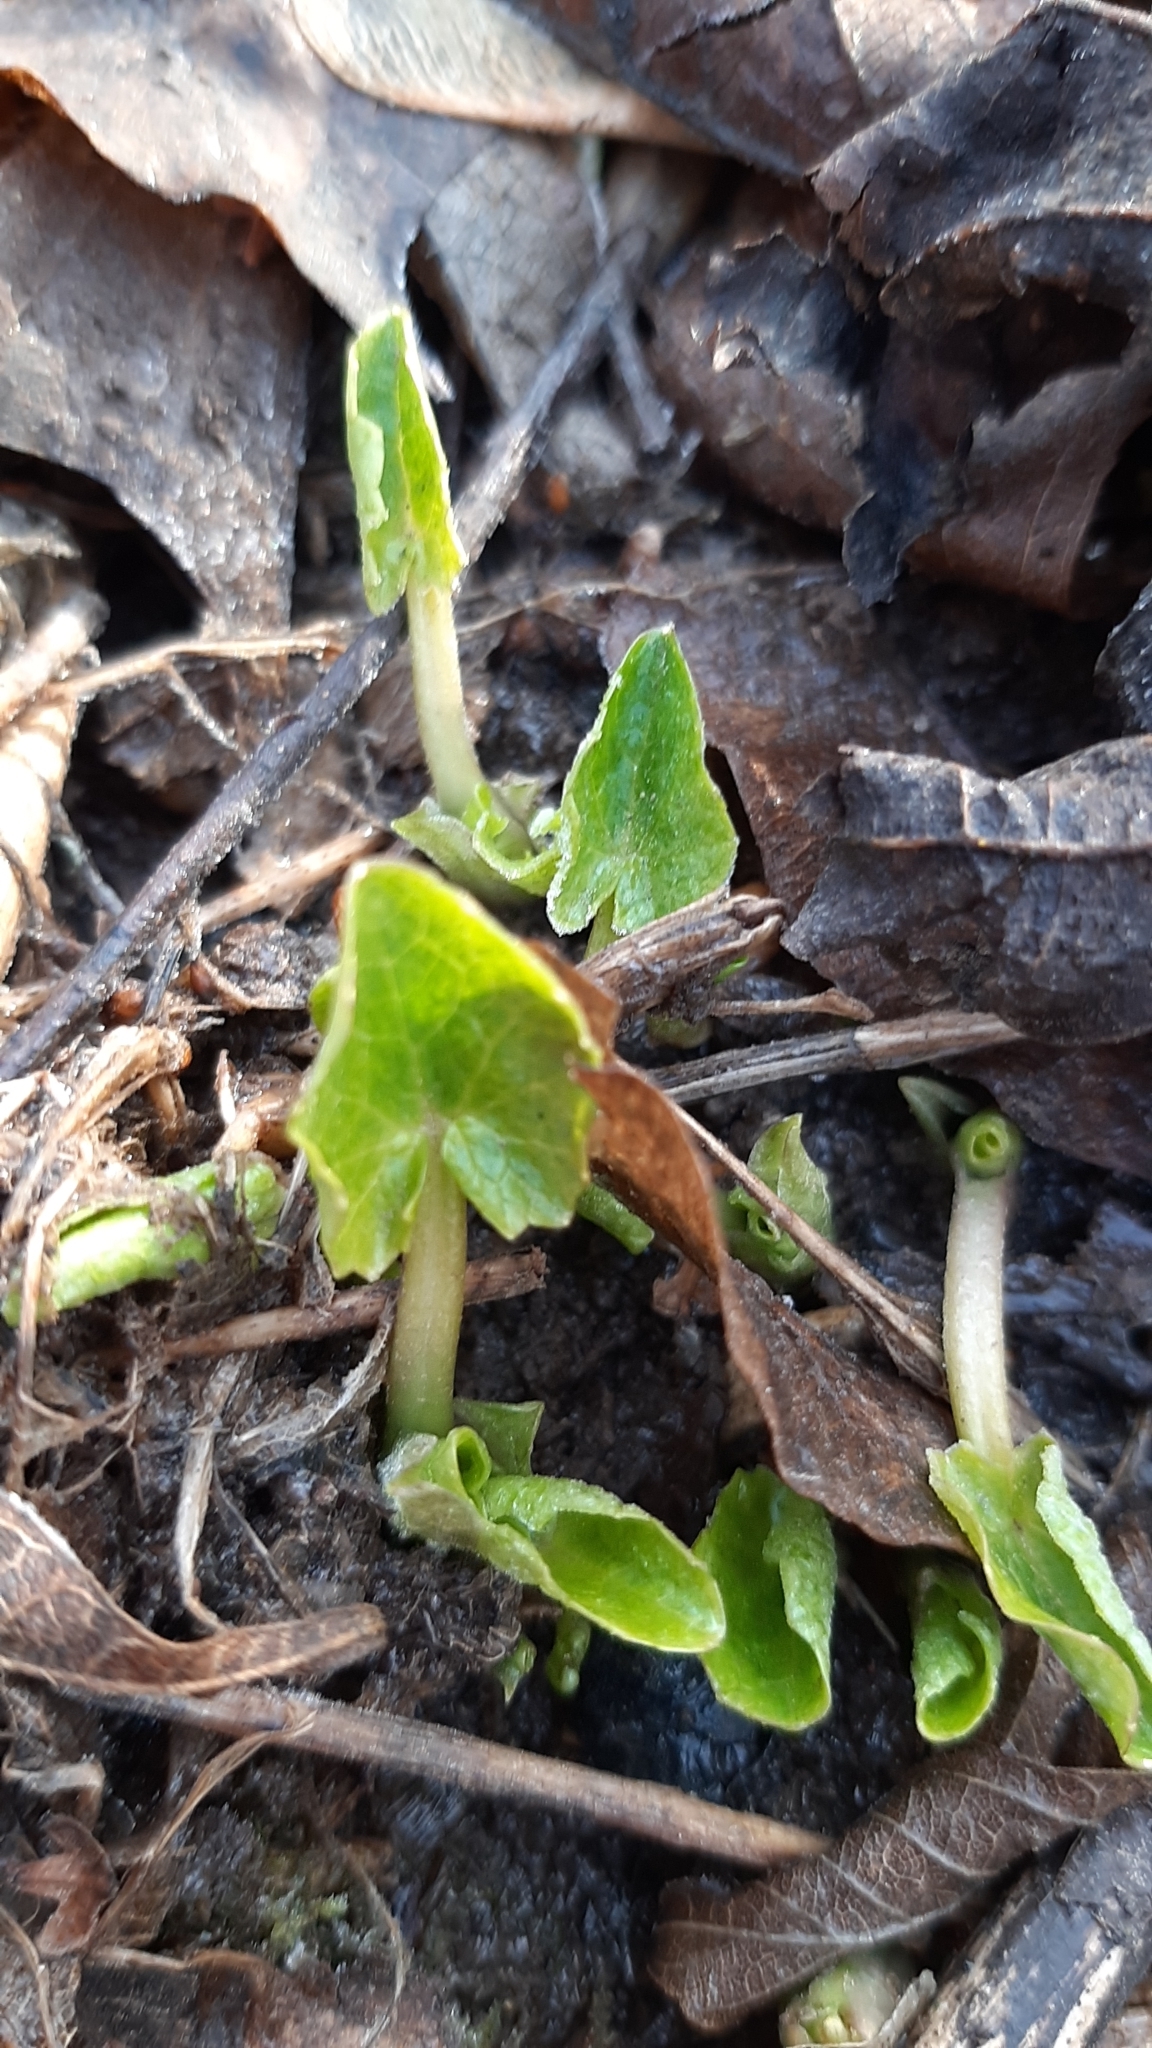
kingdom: Plantae
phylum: Tracheophyta
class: Magnoliopsida
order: Ranunculales
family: Ranunculaceae
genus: Ficaria
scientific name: Ficaria verna
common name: Lesser celandine
